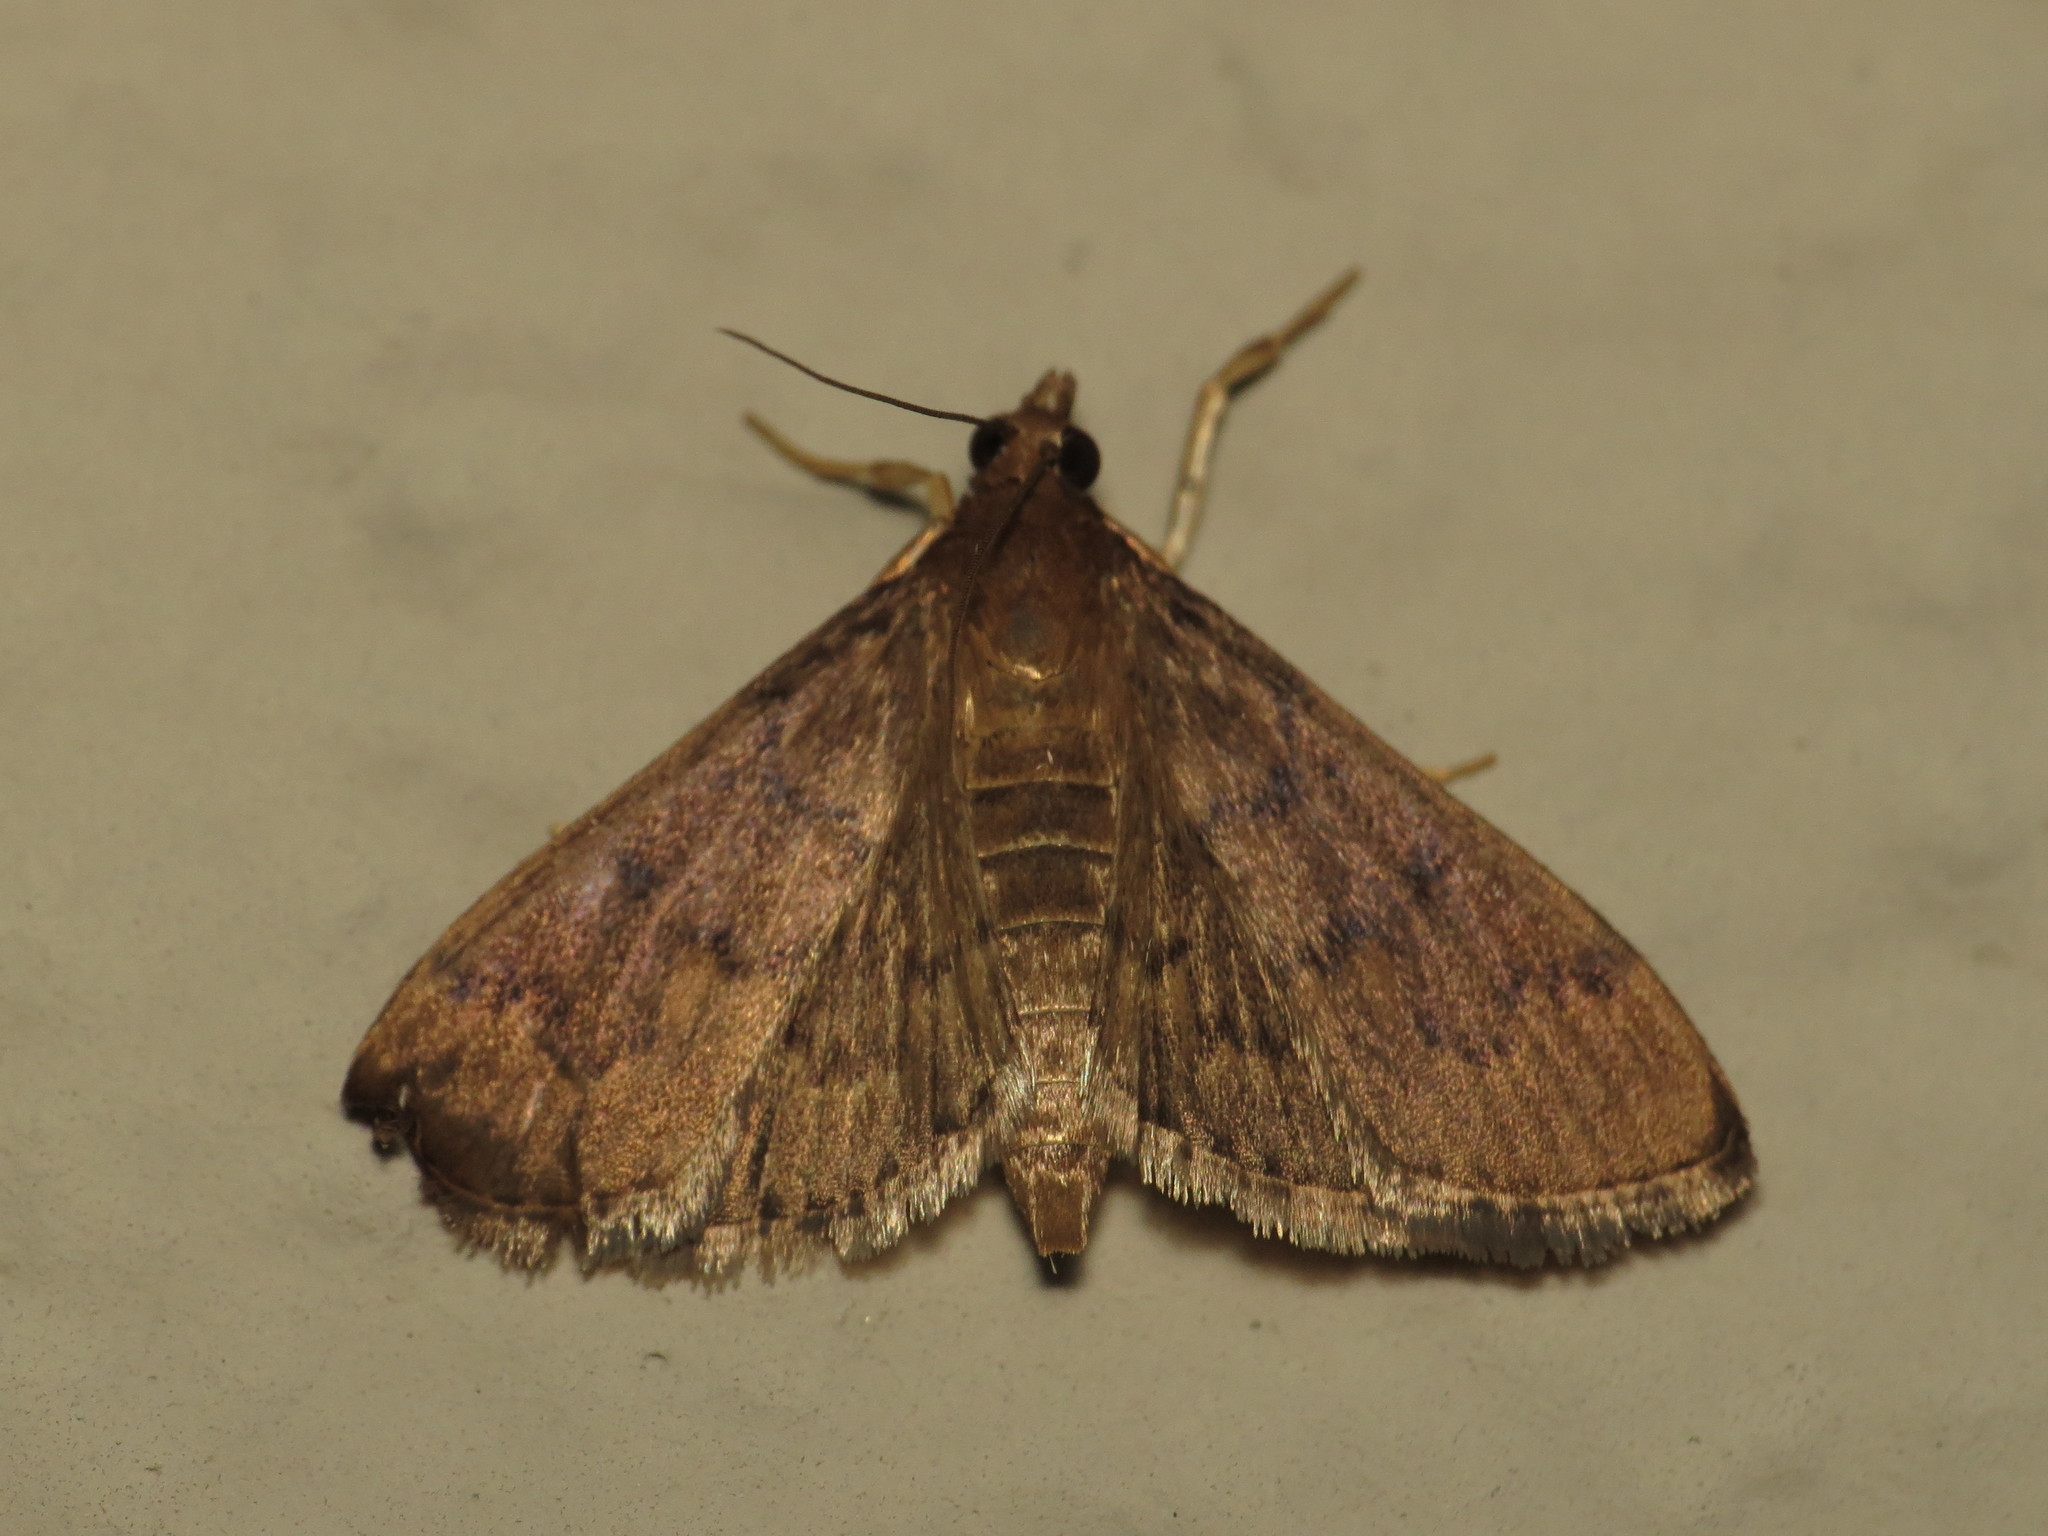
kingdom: Animalia
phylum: Arthropoda
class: Insecta
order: Lepidoptera
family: Crambidae
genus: Herpetogramma
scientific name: Herpetogramma phaeopteralis
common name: Dusky herpetogramma moth
